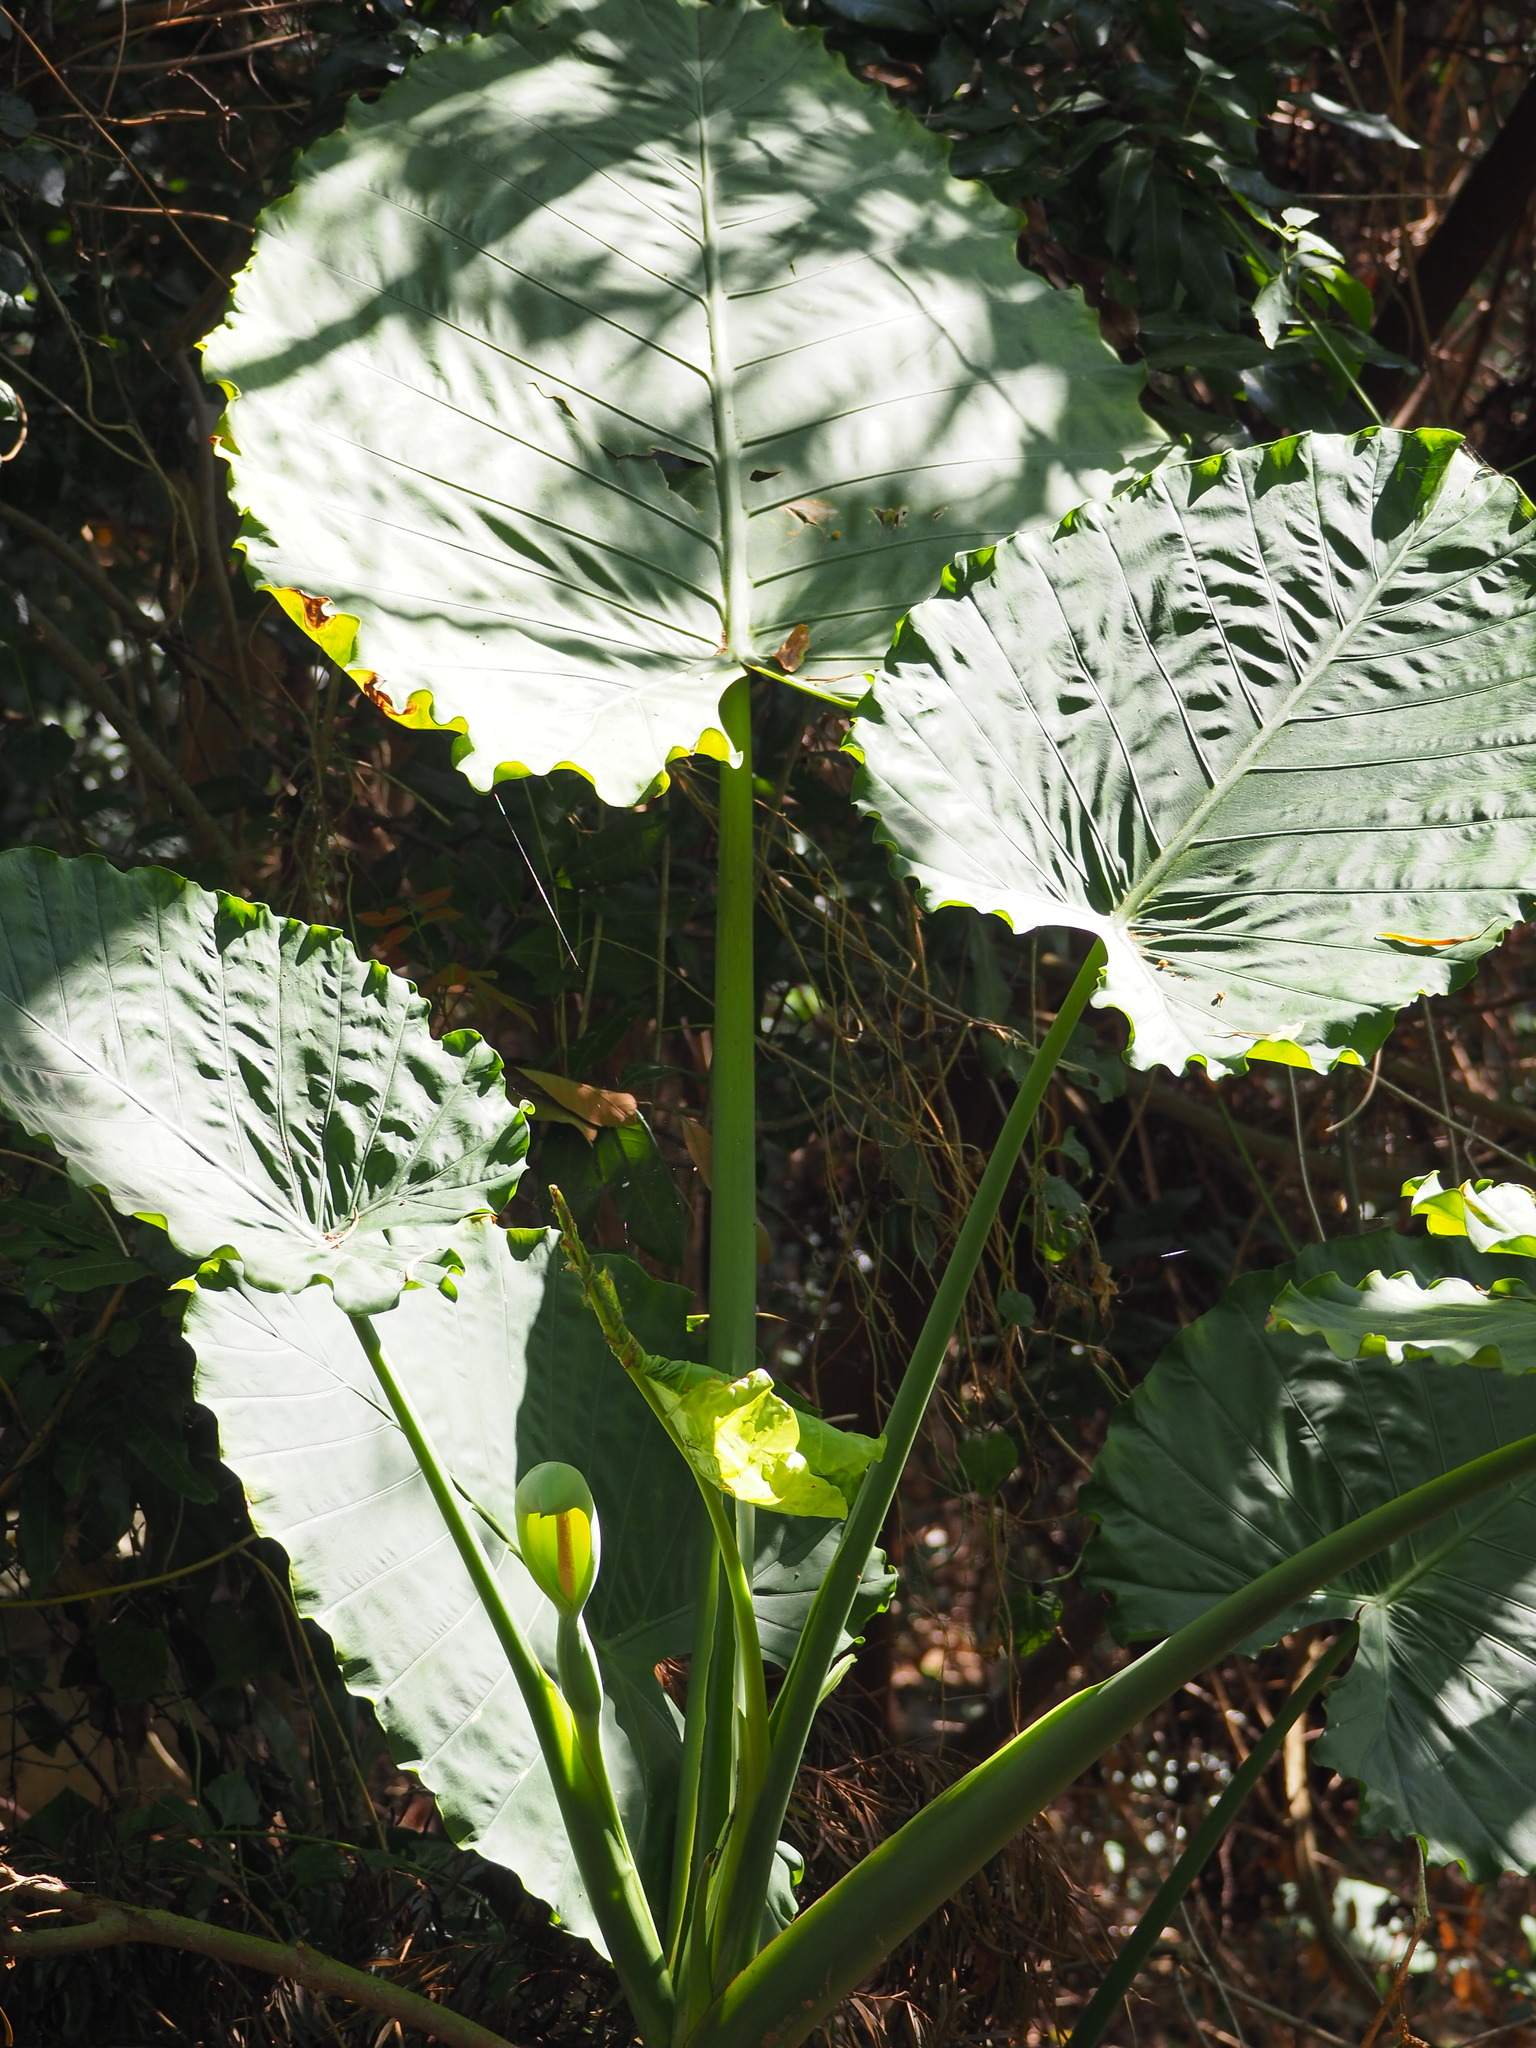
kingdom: Plantae
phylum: Tracheophyta
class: Liliopsida
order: Alismatales
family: Araceae
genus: Alocasia
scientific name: Alocasia odora
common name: Asian taro
